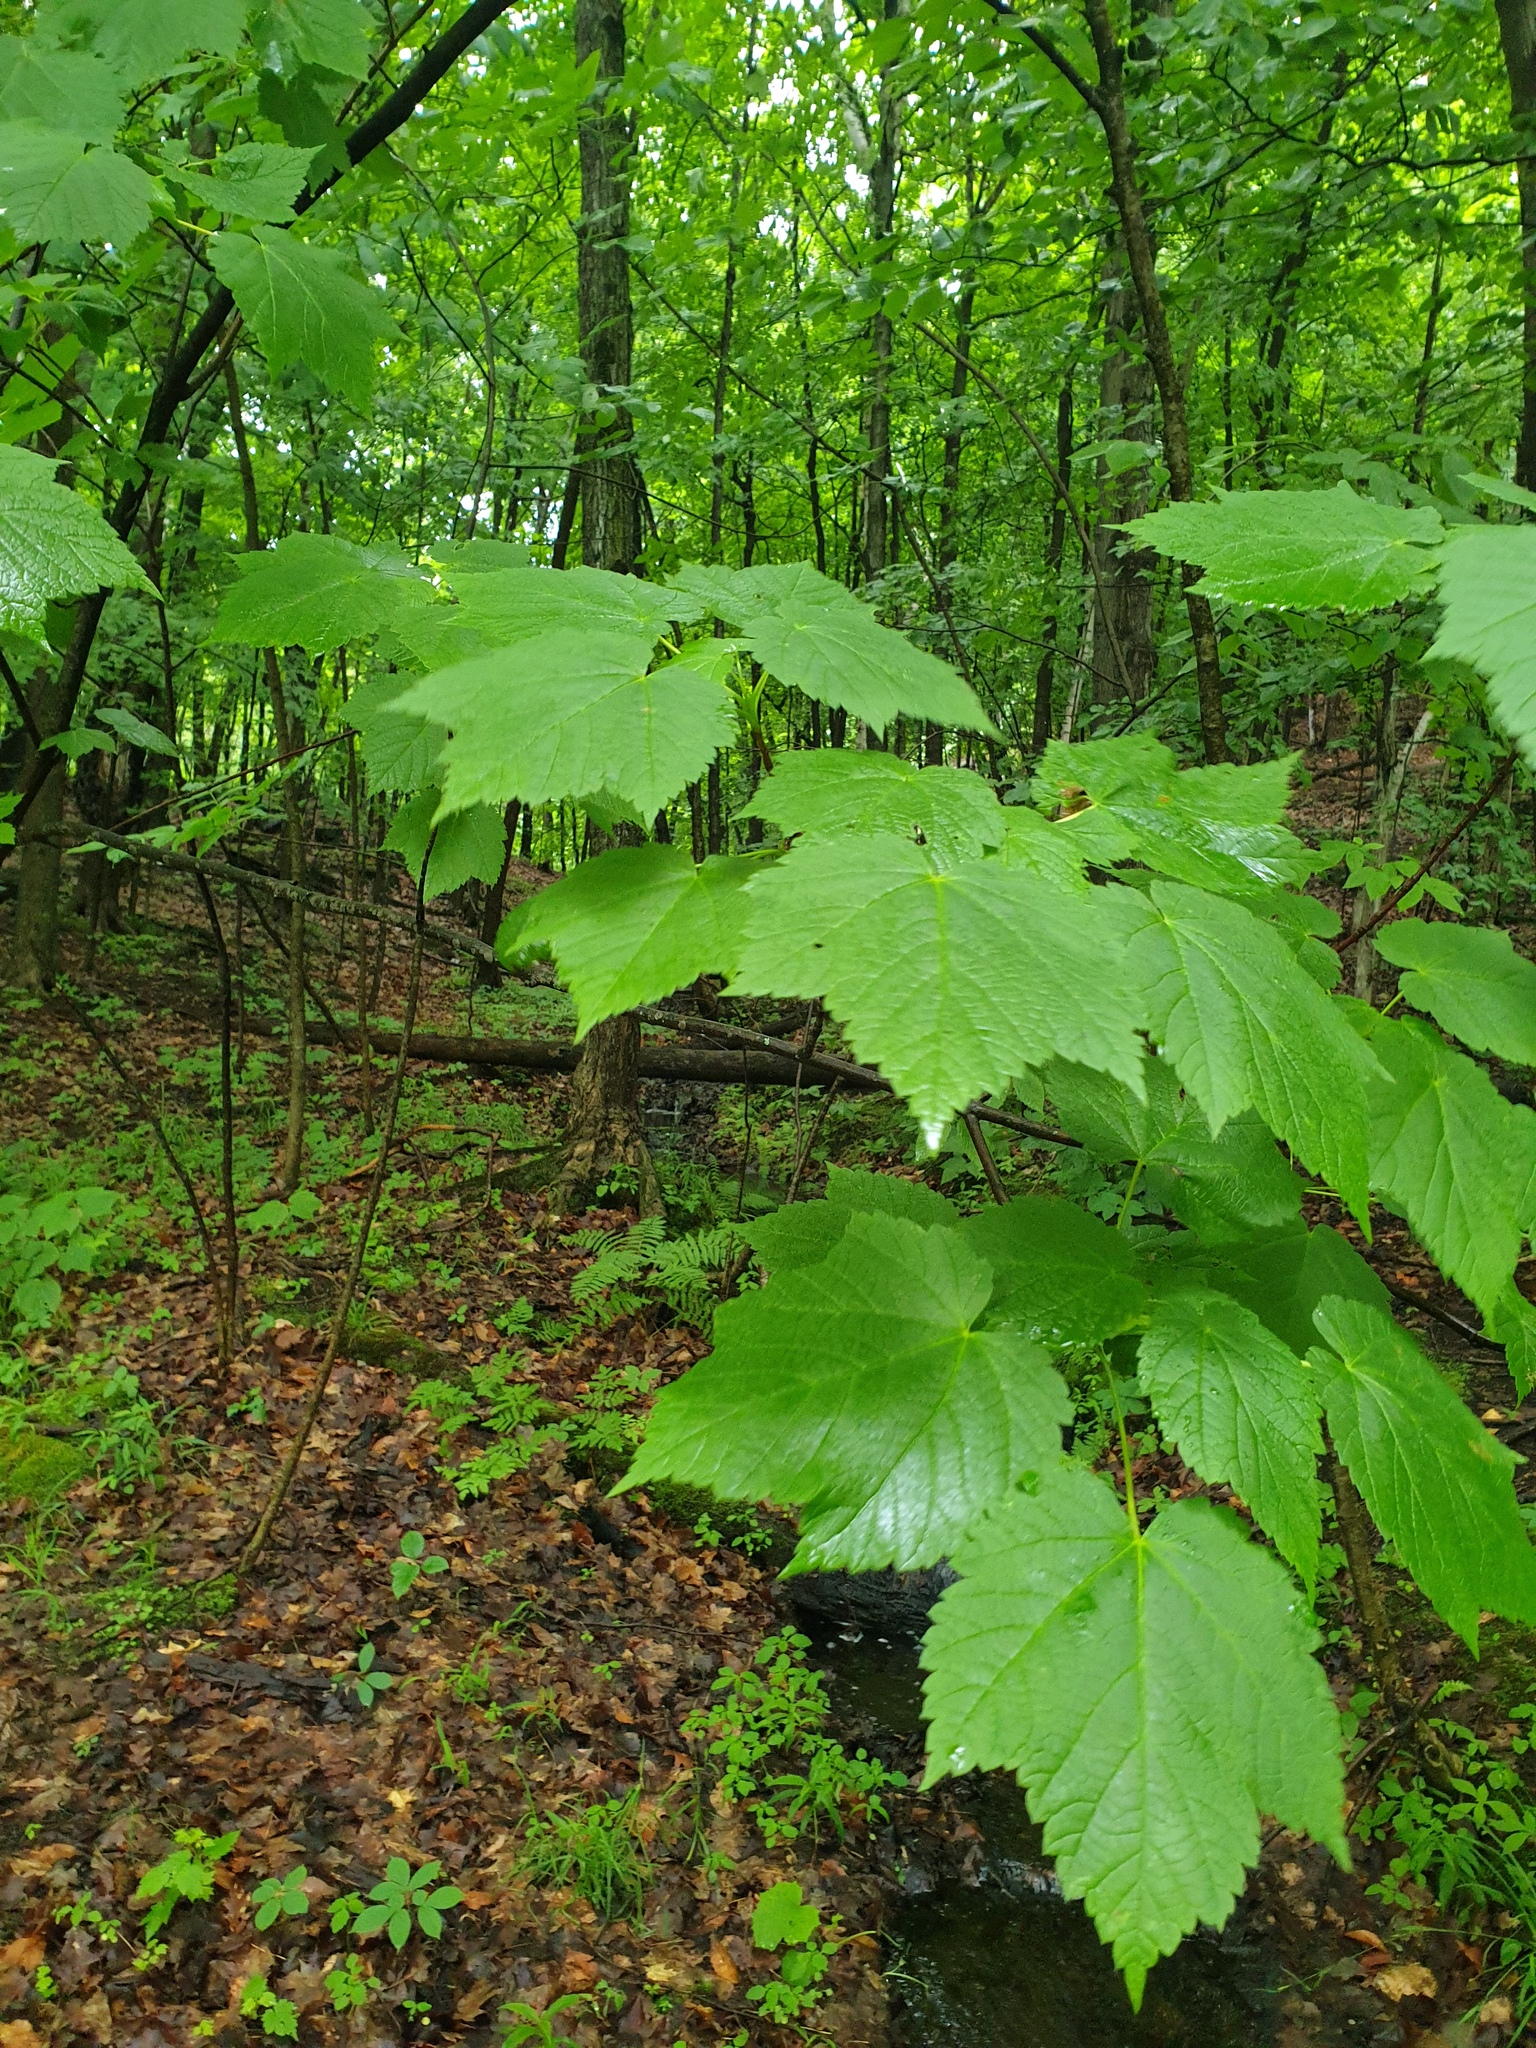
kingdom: Plantae
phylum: Tracheophyta
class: Magnoliopsida
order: Sapindales
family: Sapindaceae
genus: Acer
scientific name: Acer spicatum
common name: Mountain maple
